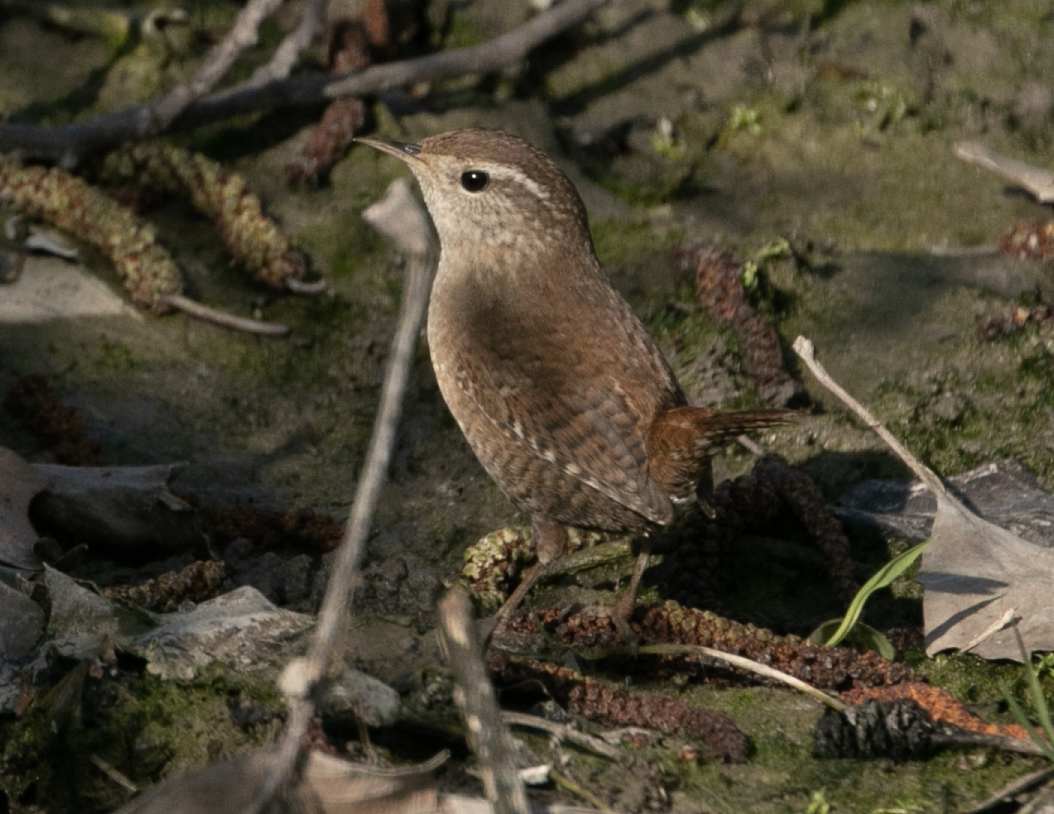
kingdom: Animalia
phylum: Chordata
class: Aves
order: Passeriformes
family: Troglodytidae
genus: Troglodytes
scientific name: Troglodytes troglodytes
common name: Eurasian wren
